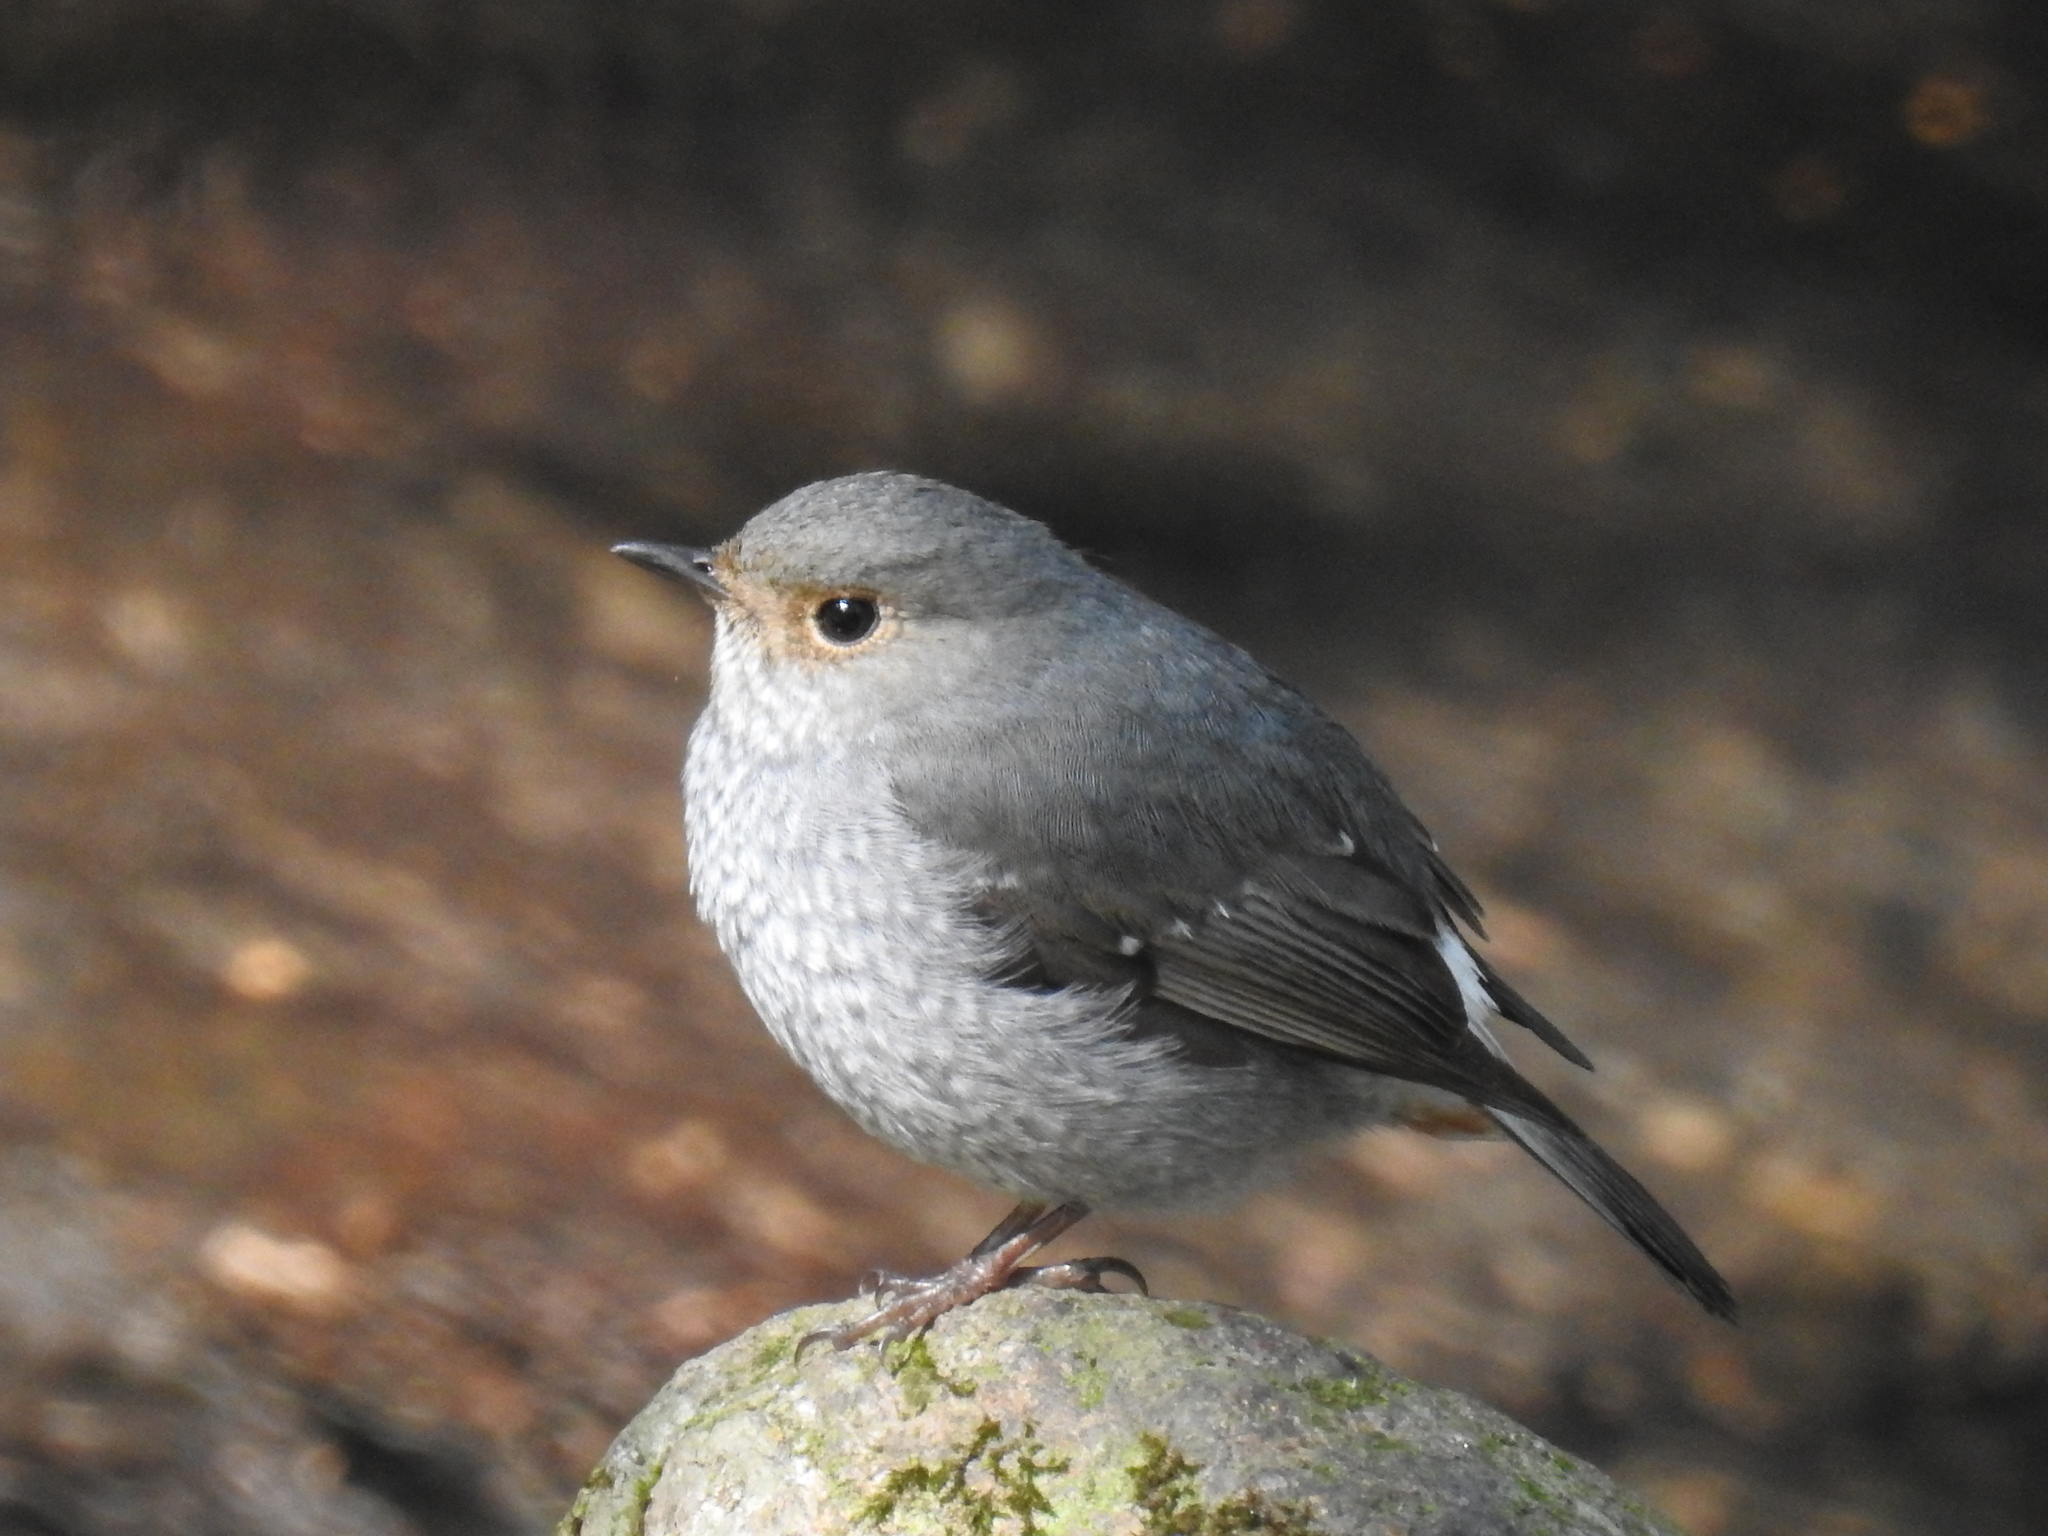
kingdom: Animalia
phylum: Chordata
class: Aves
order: Passeriformes
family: Muscicapidae
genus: Phoenicurus
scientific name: Phoenicurus fuliginosus
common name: Plumbeous water redstart
